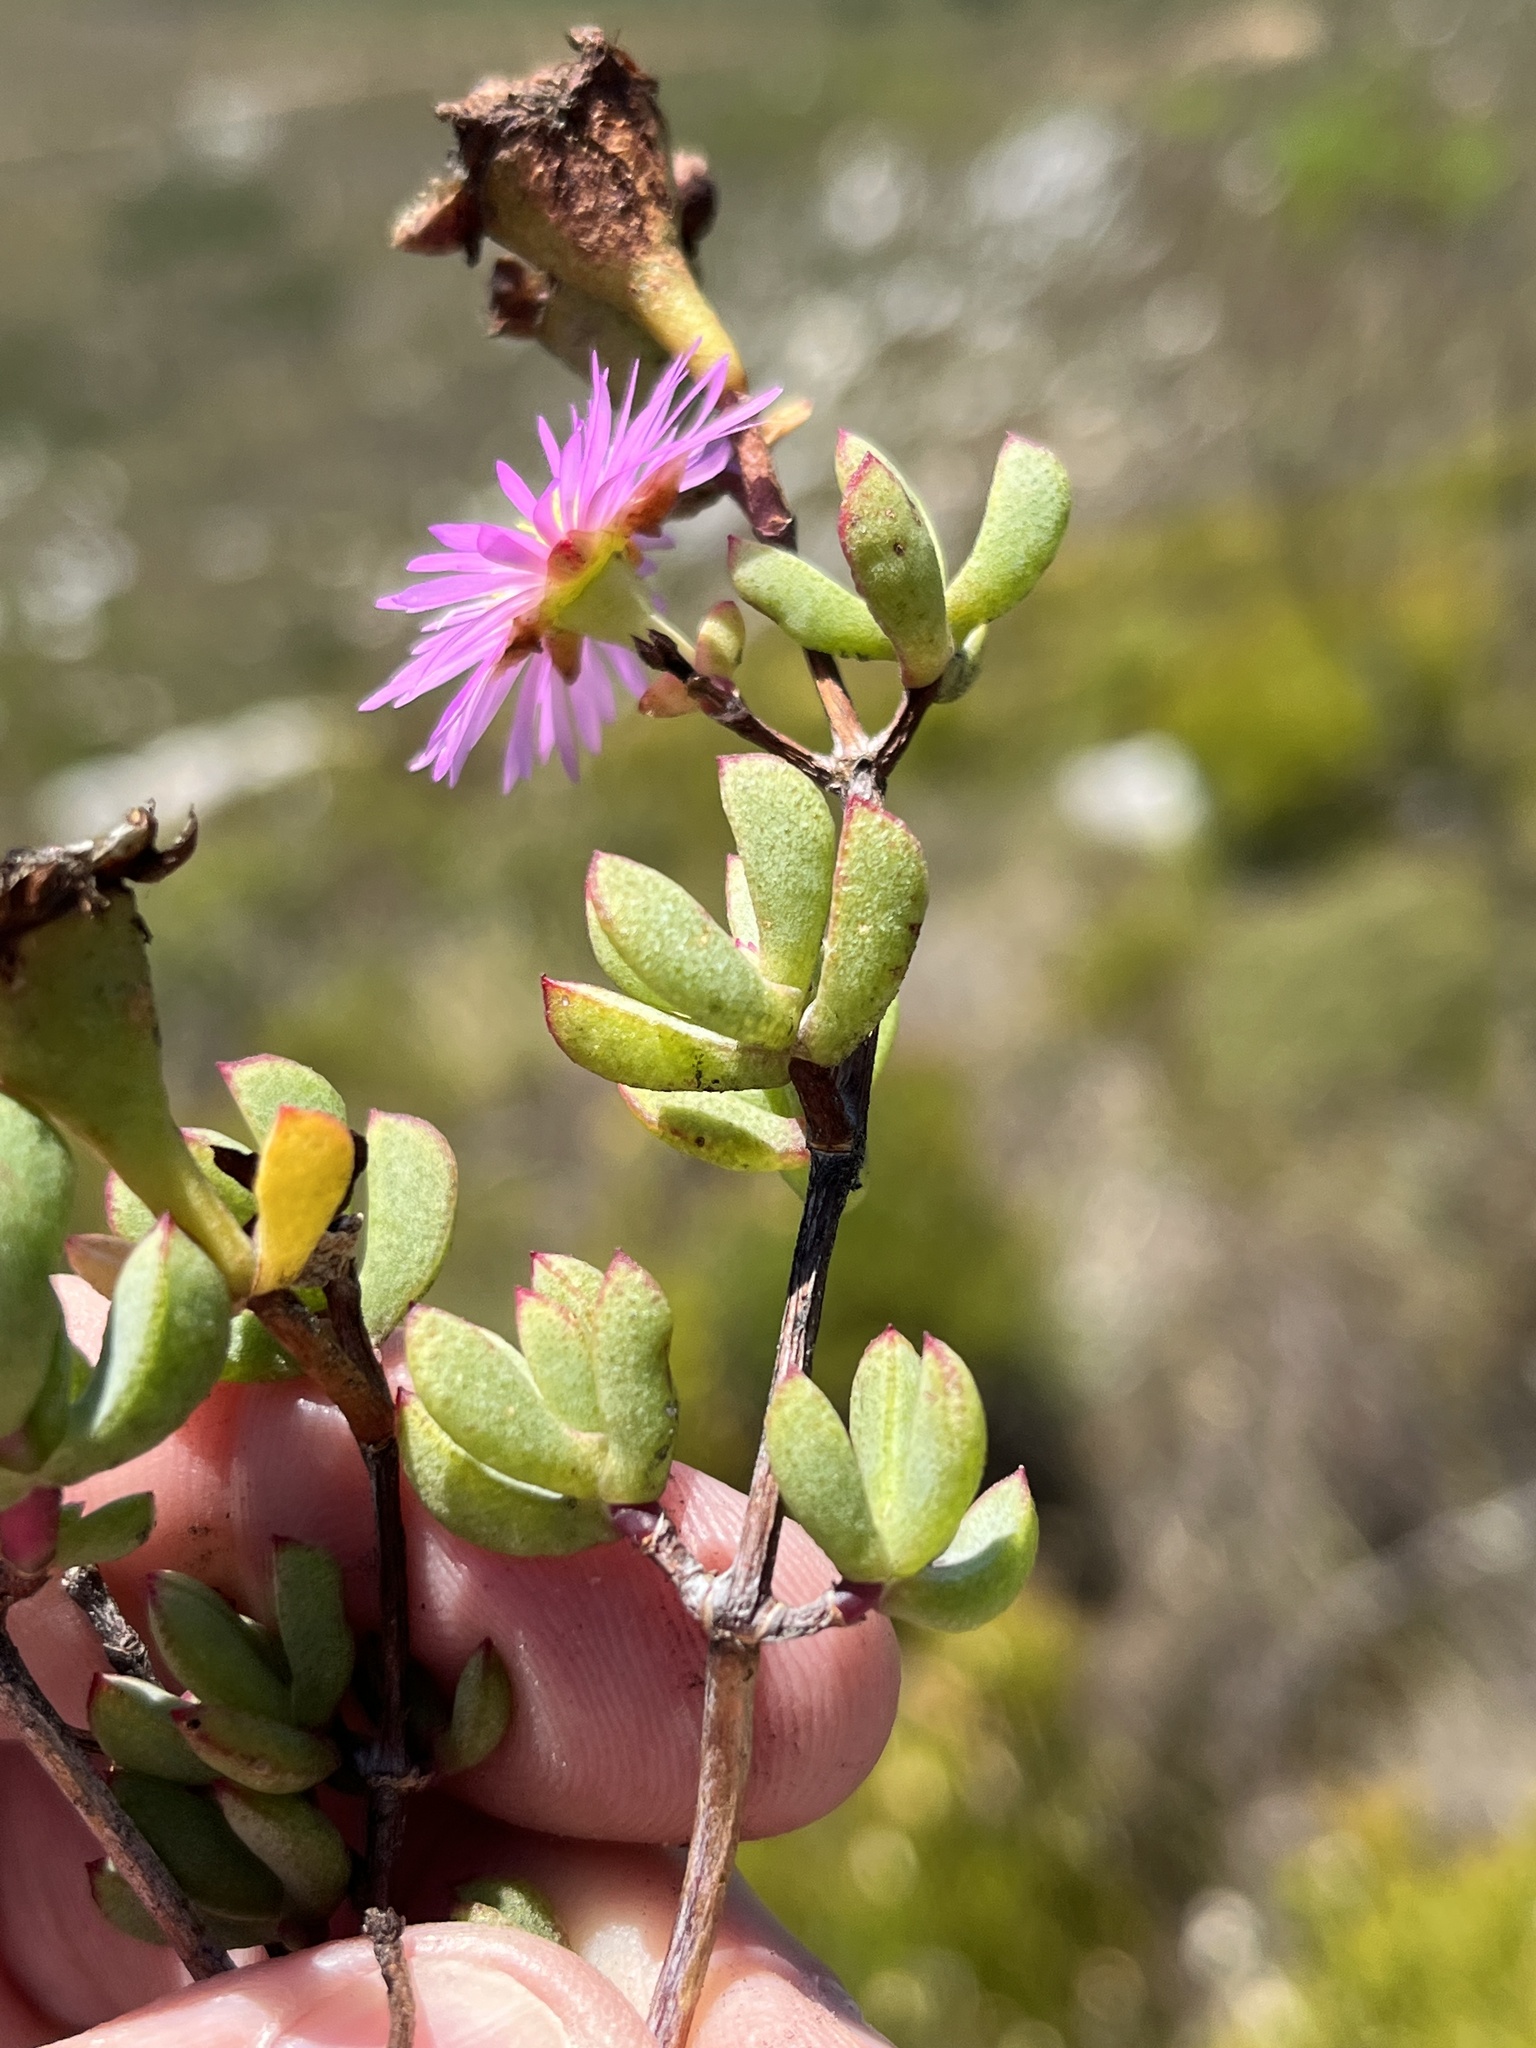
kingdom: Plantae
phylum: Tracheophyta
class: Magnoliopsida
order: Caryophyllales
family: Aizoaceae
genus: Oscularia
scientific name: Oscularia falciformis
